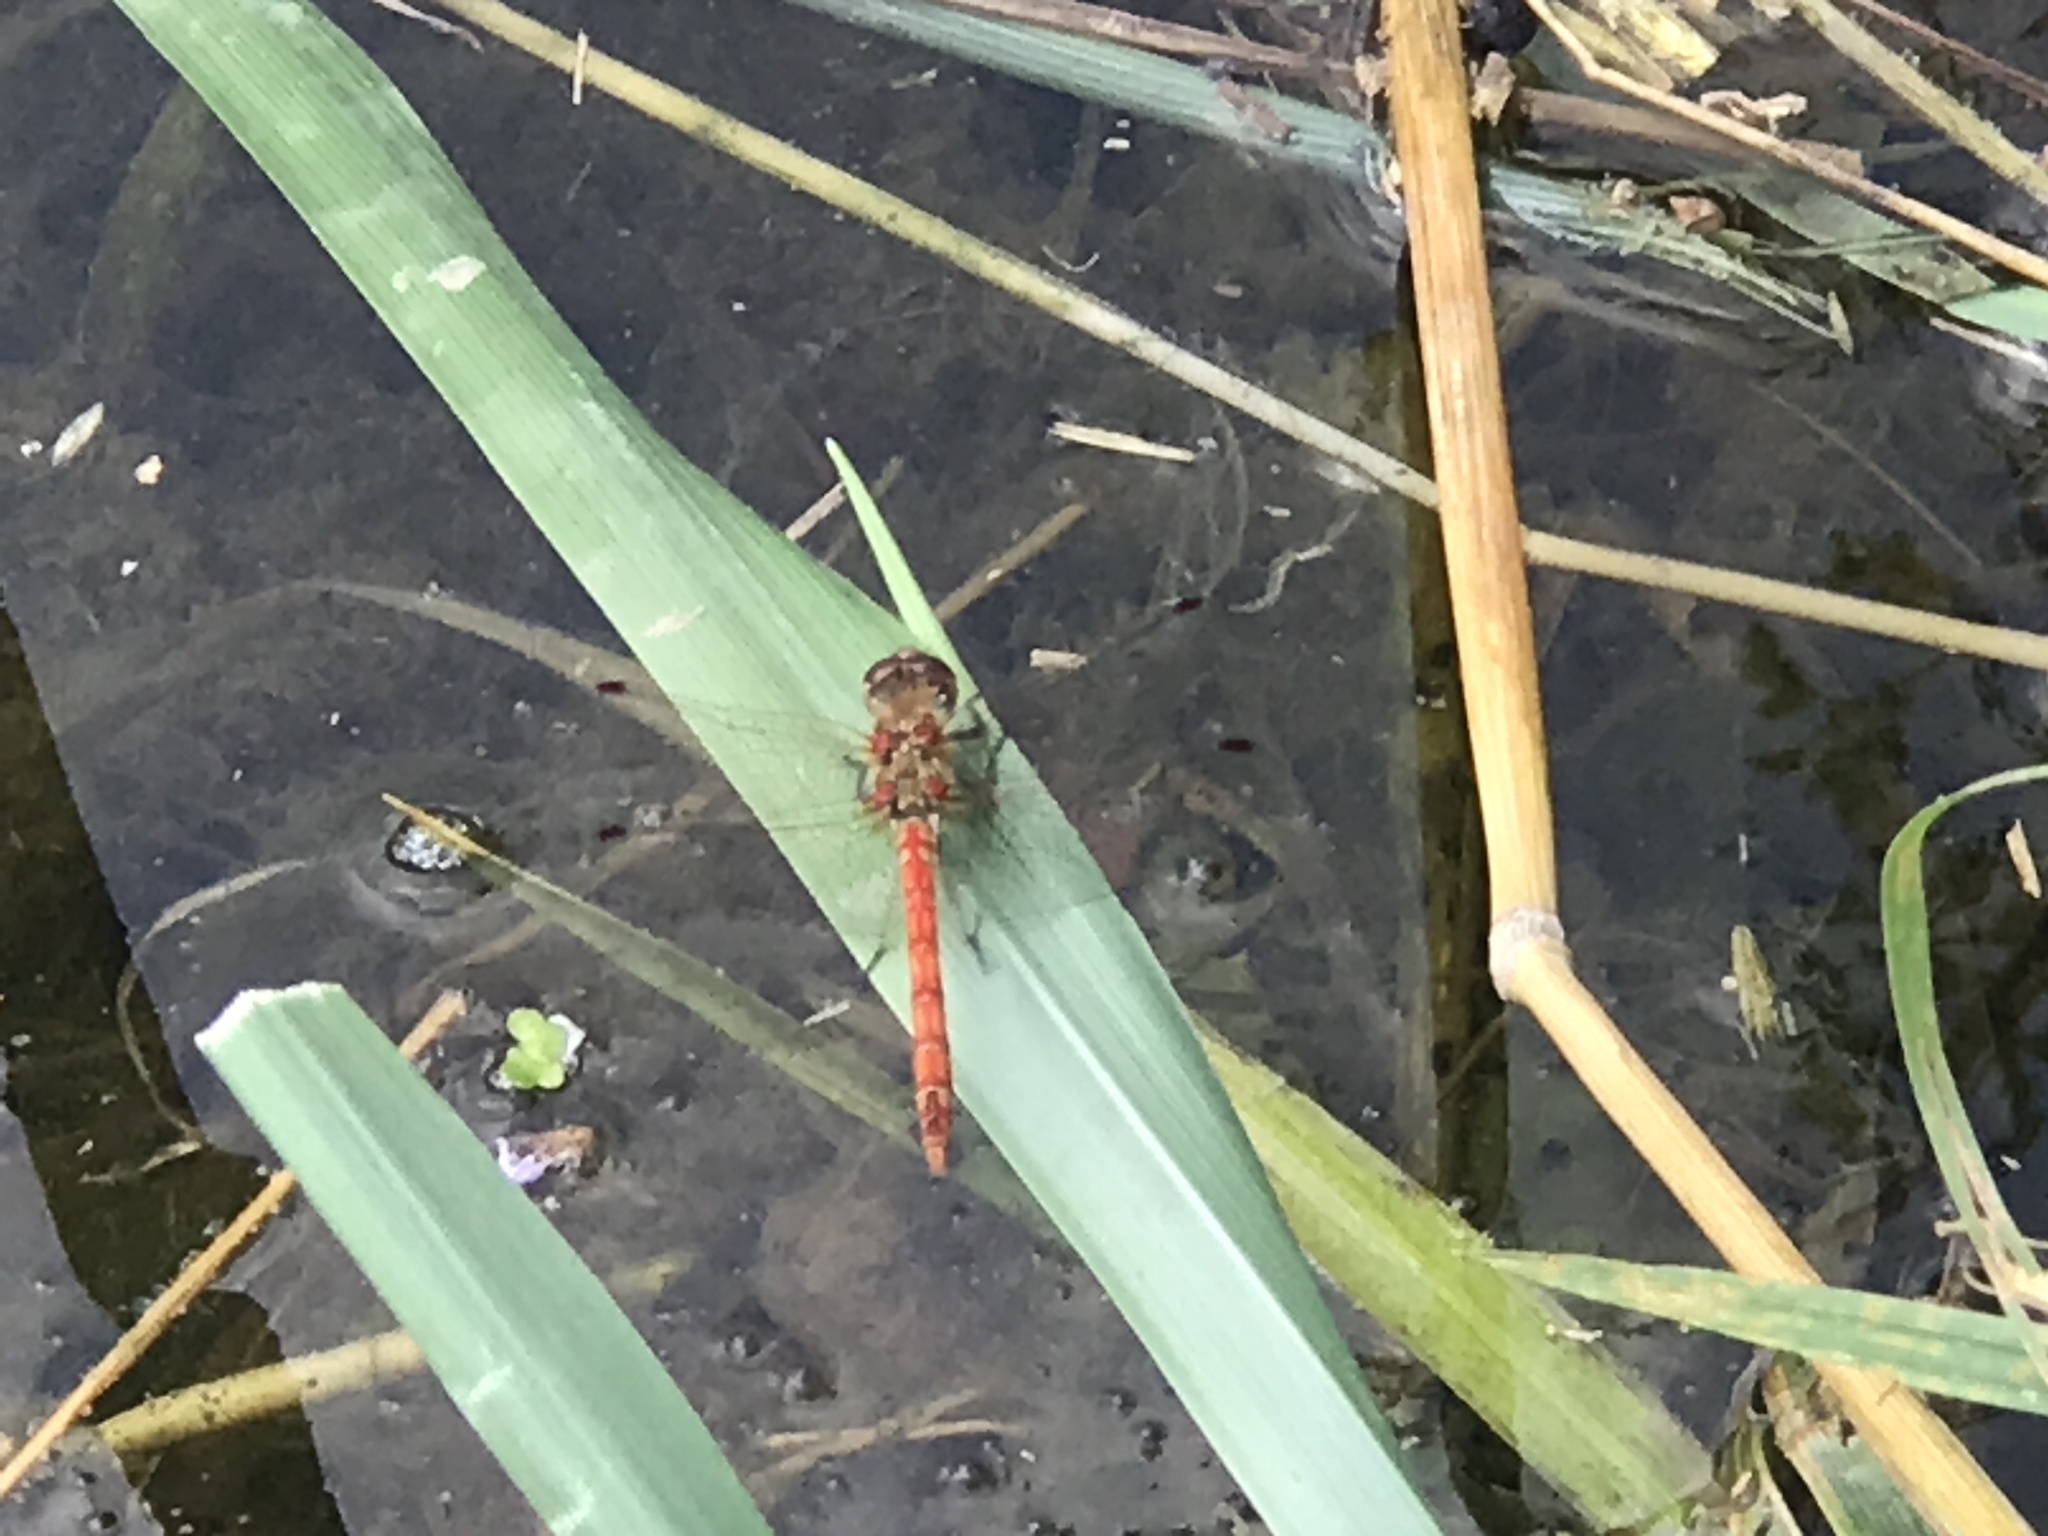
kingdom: Animalia
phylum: Arthropoda
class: Insecta
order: Odonata
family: Libellulidae
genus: Sympetrum
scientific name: Sympetrum striolatum
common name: Common darter
